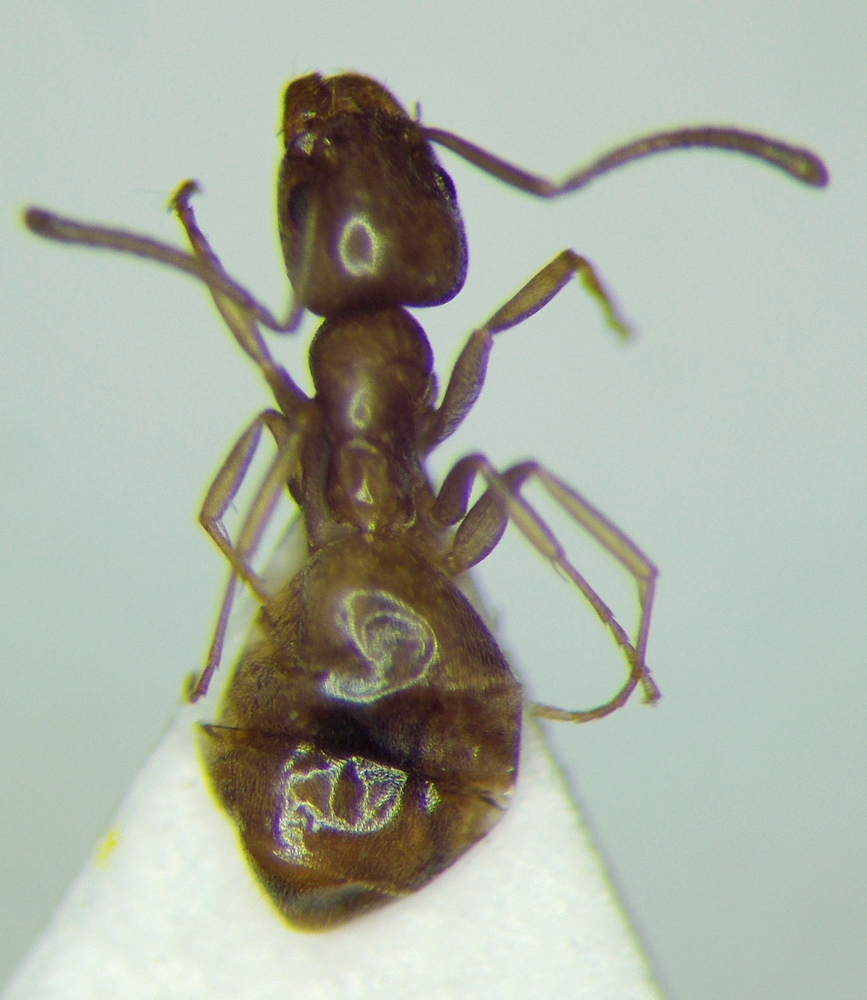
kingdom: Animalia
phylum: Arthropoda
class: Insecta
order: Hymenoptera
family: Formicidae
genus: Tapinoma
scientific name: Tapinoma emeryanum
